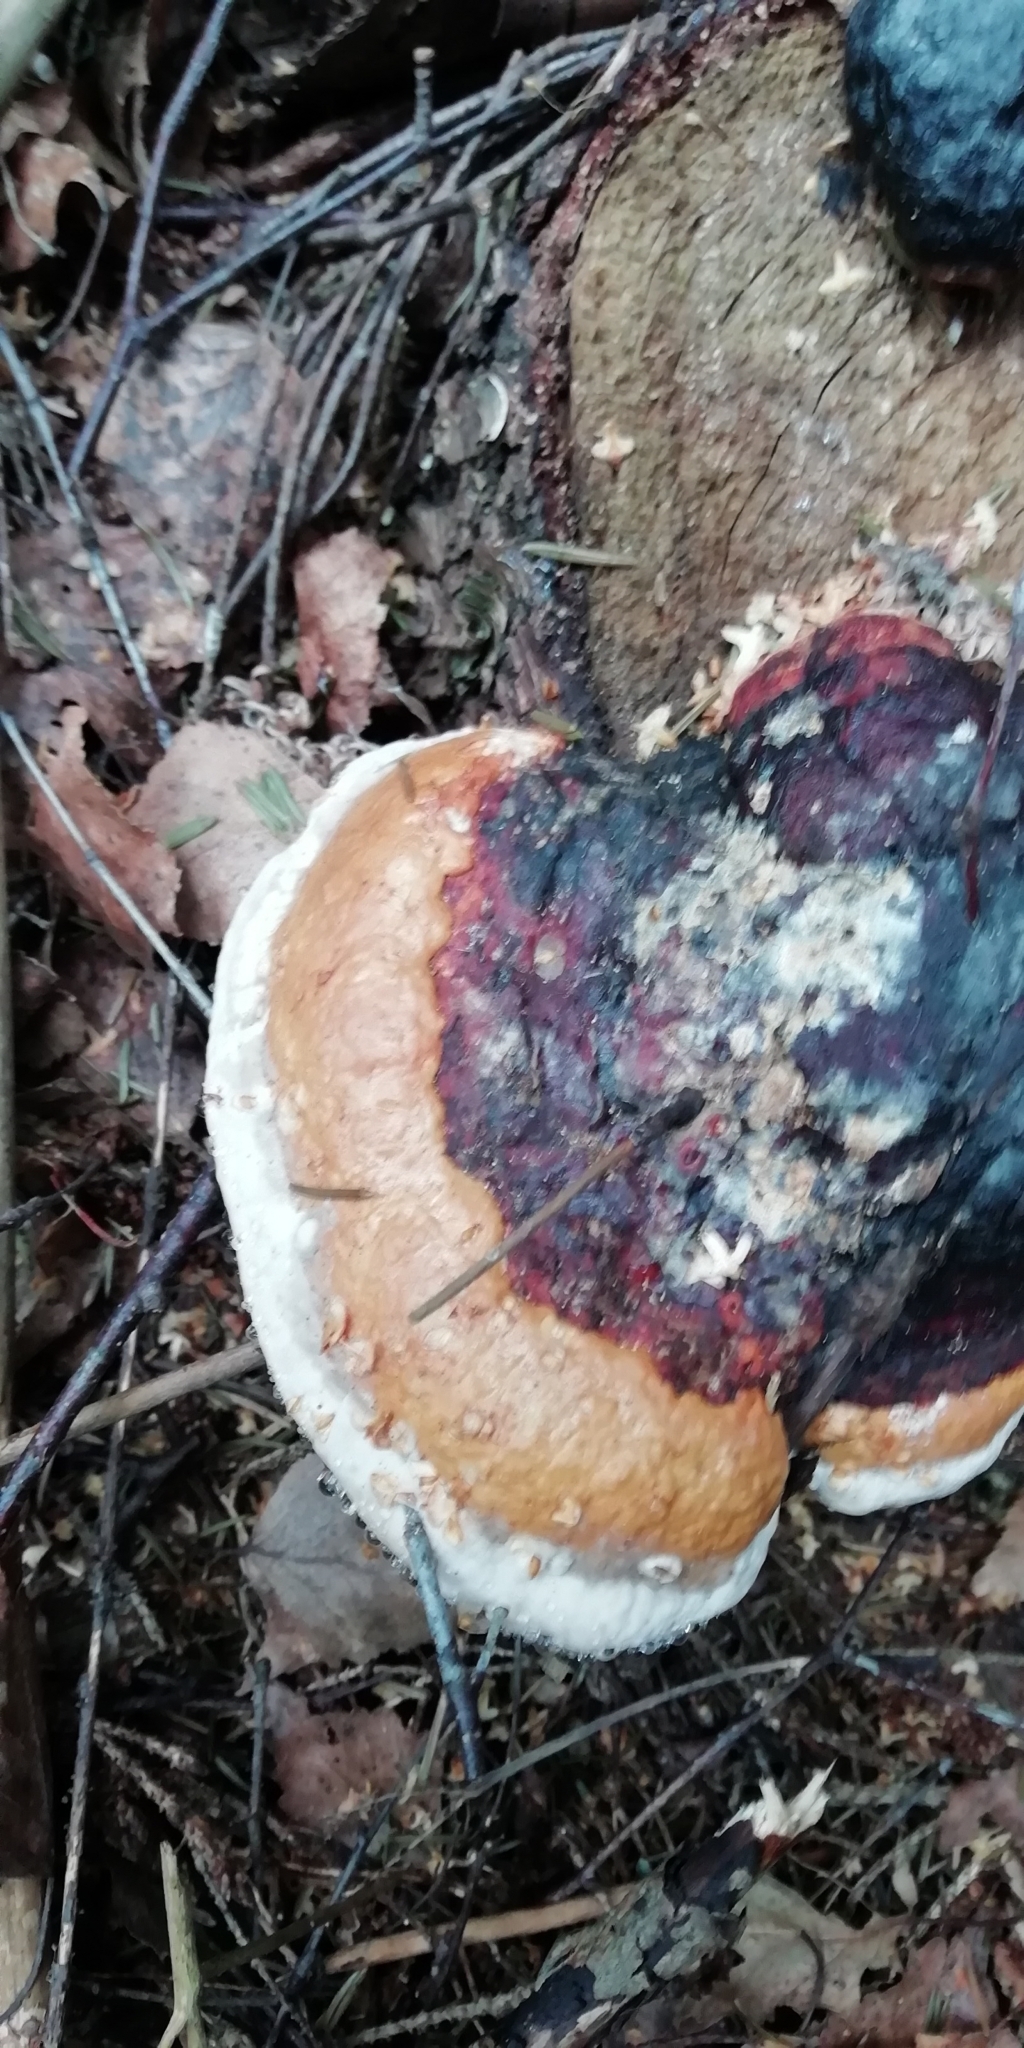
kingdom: Fungi
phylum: Basidiomycota
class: Agaricomycetes
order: Polyporales
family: Fomitopsidaceae
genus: Fomitopsis
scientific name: Fomitopsis pinicola
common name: Red-belted bracket
